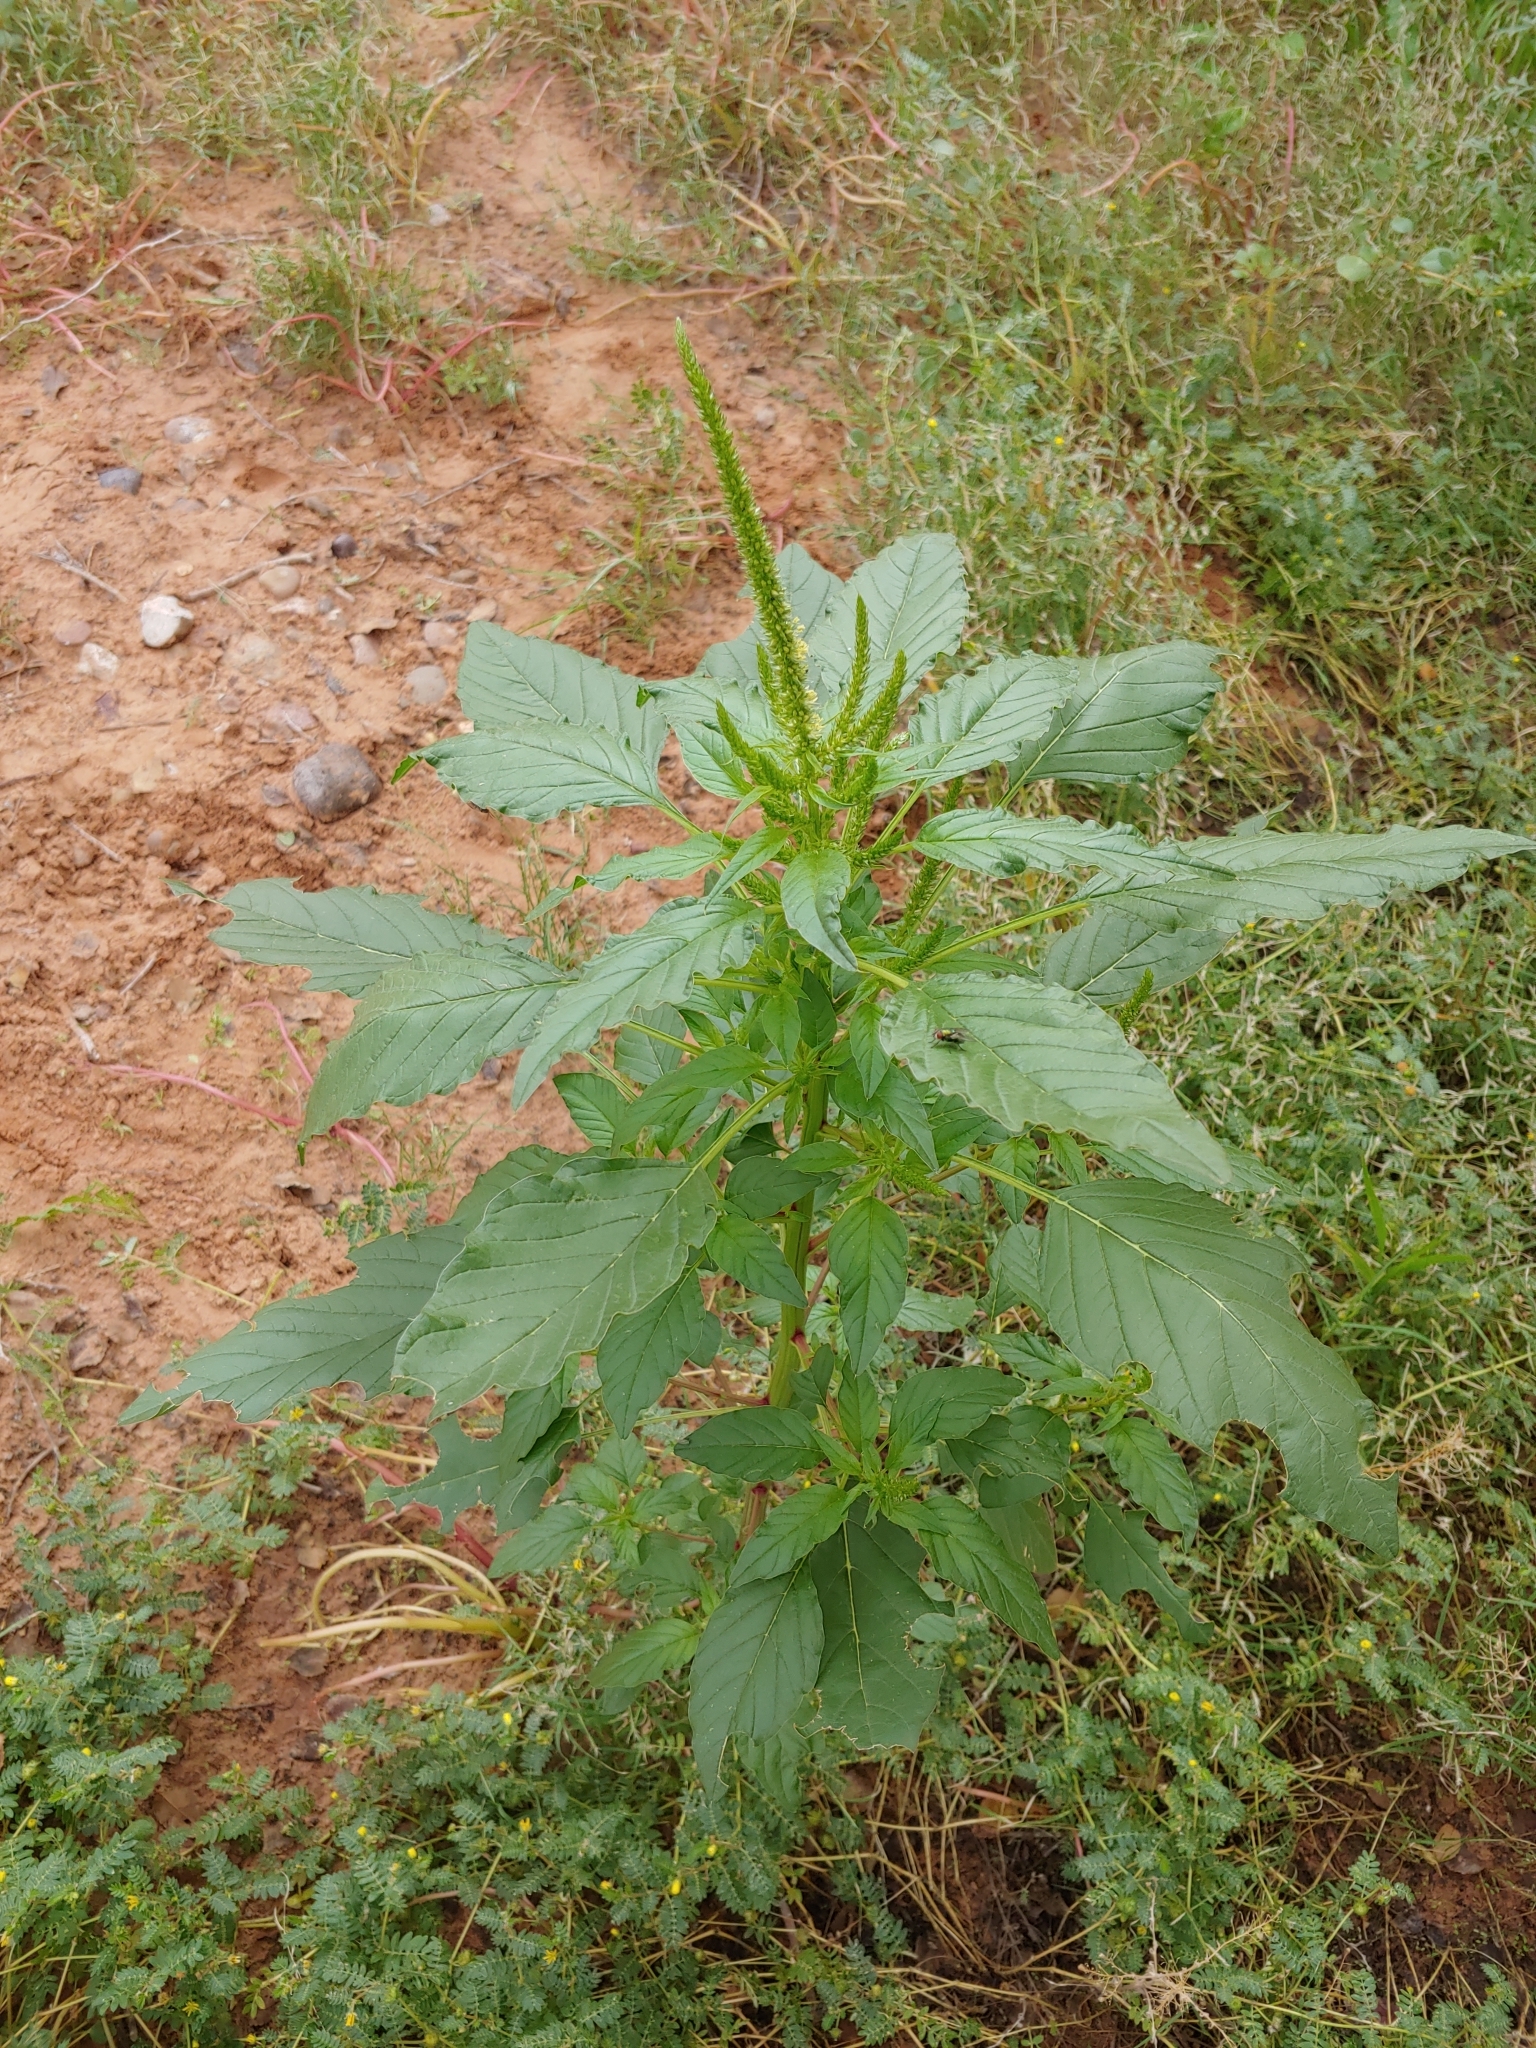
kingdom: Plantae
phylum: Tracheophyta
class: Magnoliopsida
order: Caryophyllales
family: Amaranthaceae
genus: Amaranthus
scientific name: Amaranthus palmeri
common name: Dioecious amaranth
